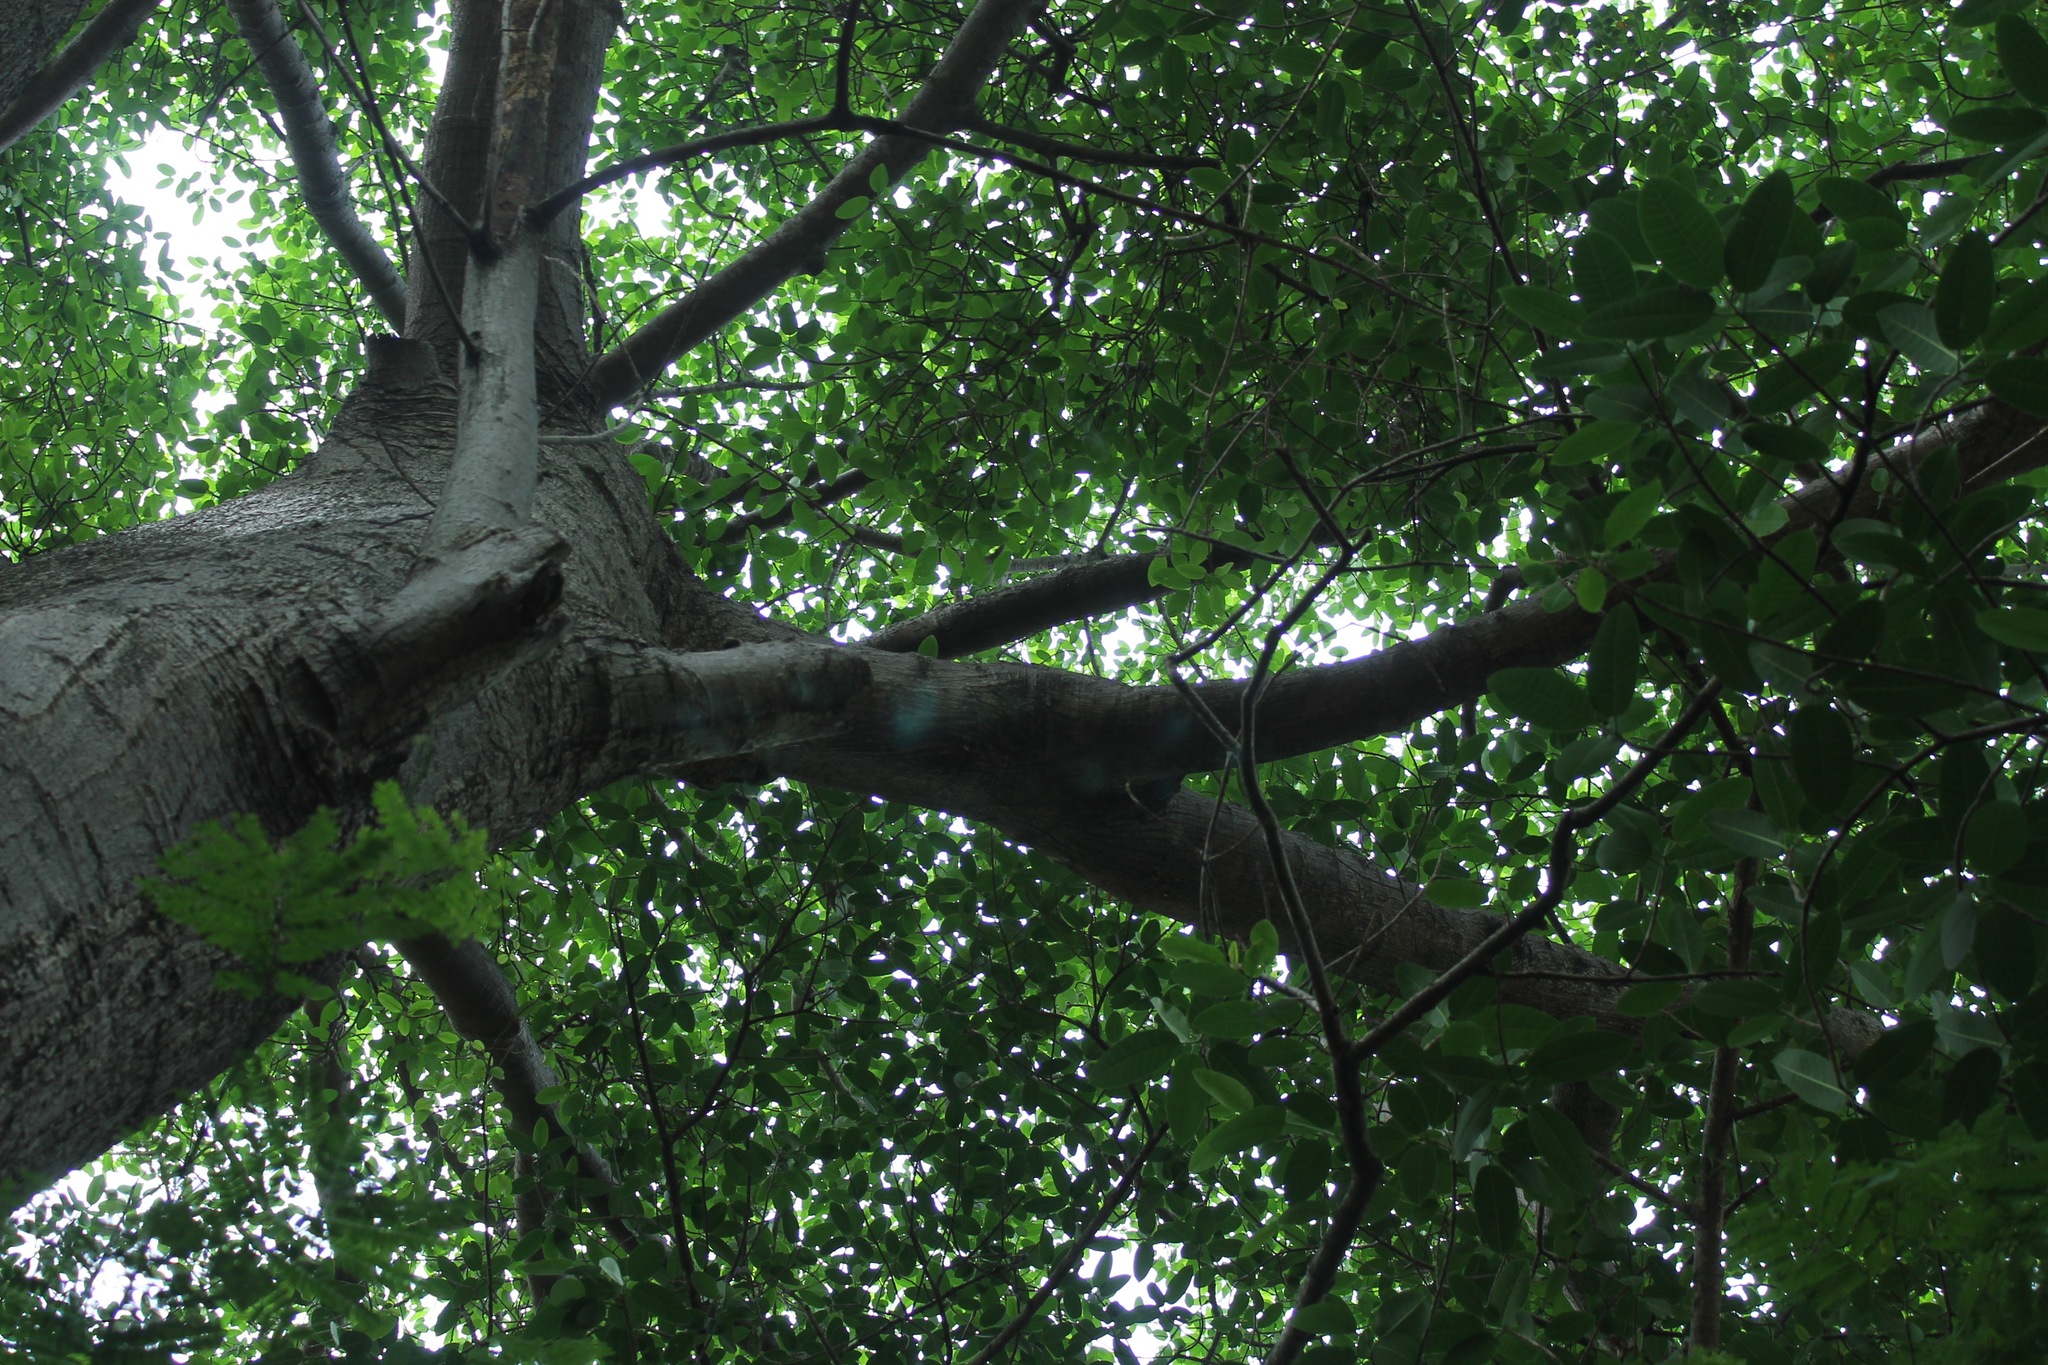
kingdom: Plantae
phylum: Tracheophyta
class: Magnoliopsida
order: Rosales
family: Moraceae
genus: Ficus
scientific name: Ficus crocata
